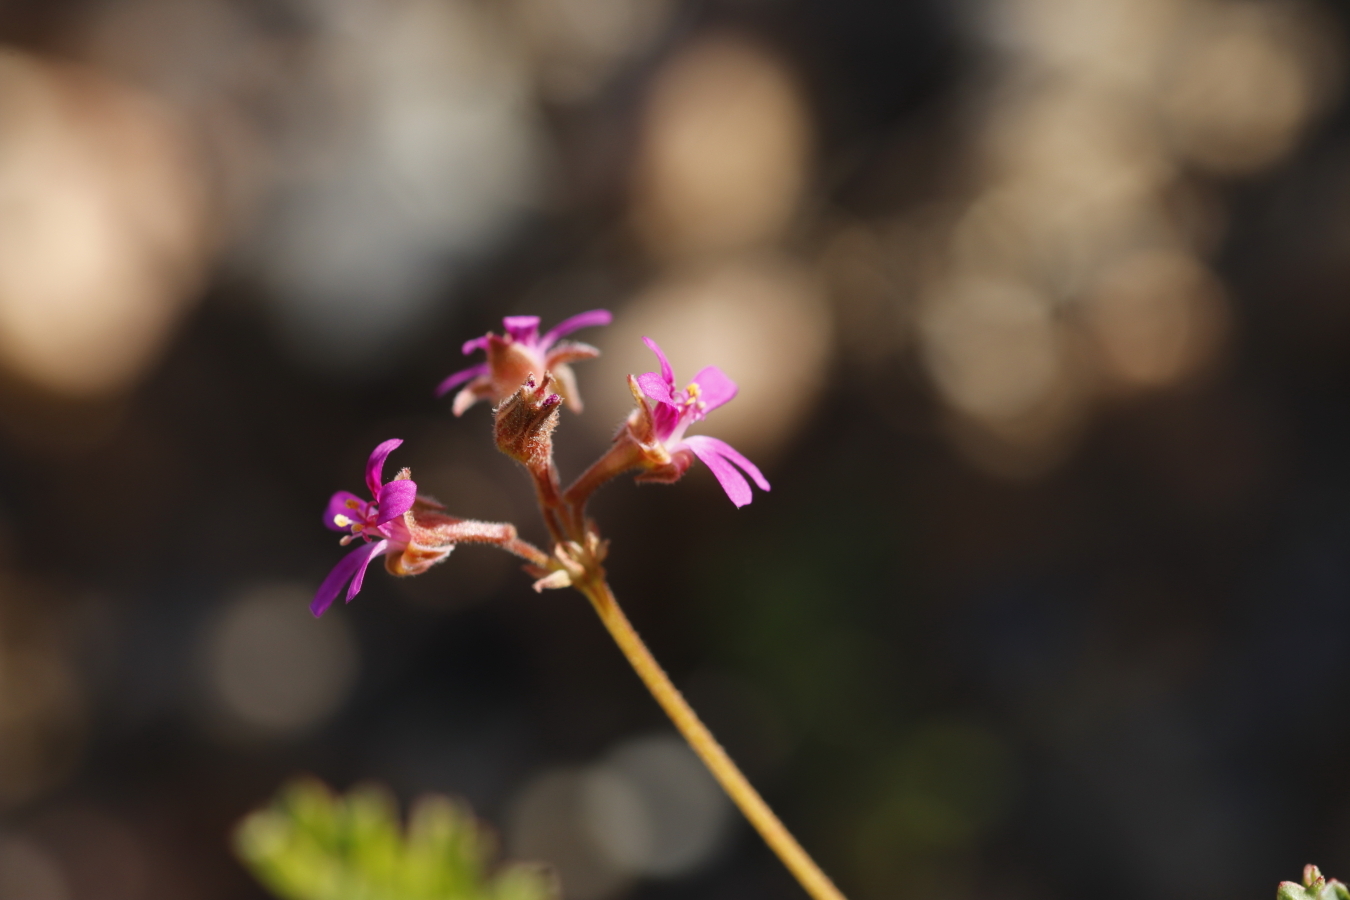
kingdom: Plantae
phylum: Tracheophyta
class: Magnoliopsida
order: Geraniales
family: Geraniaceae
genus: Pelargonium
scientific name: Pelargonium grossularioides
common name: Gooseberry geranium
